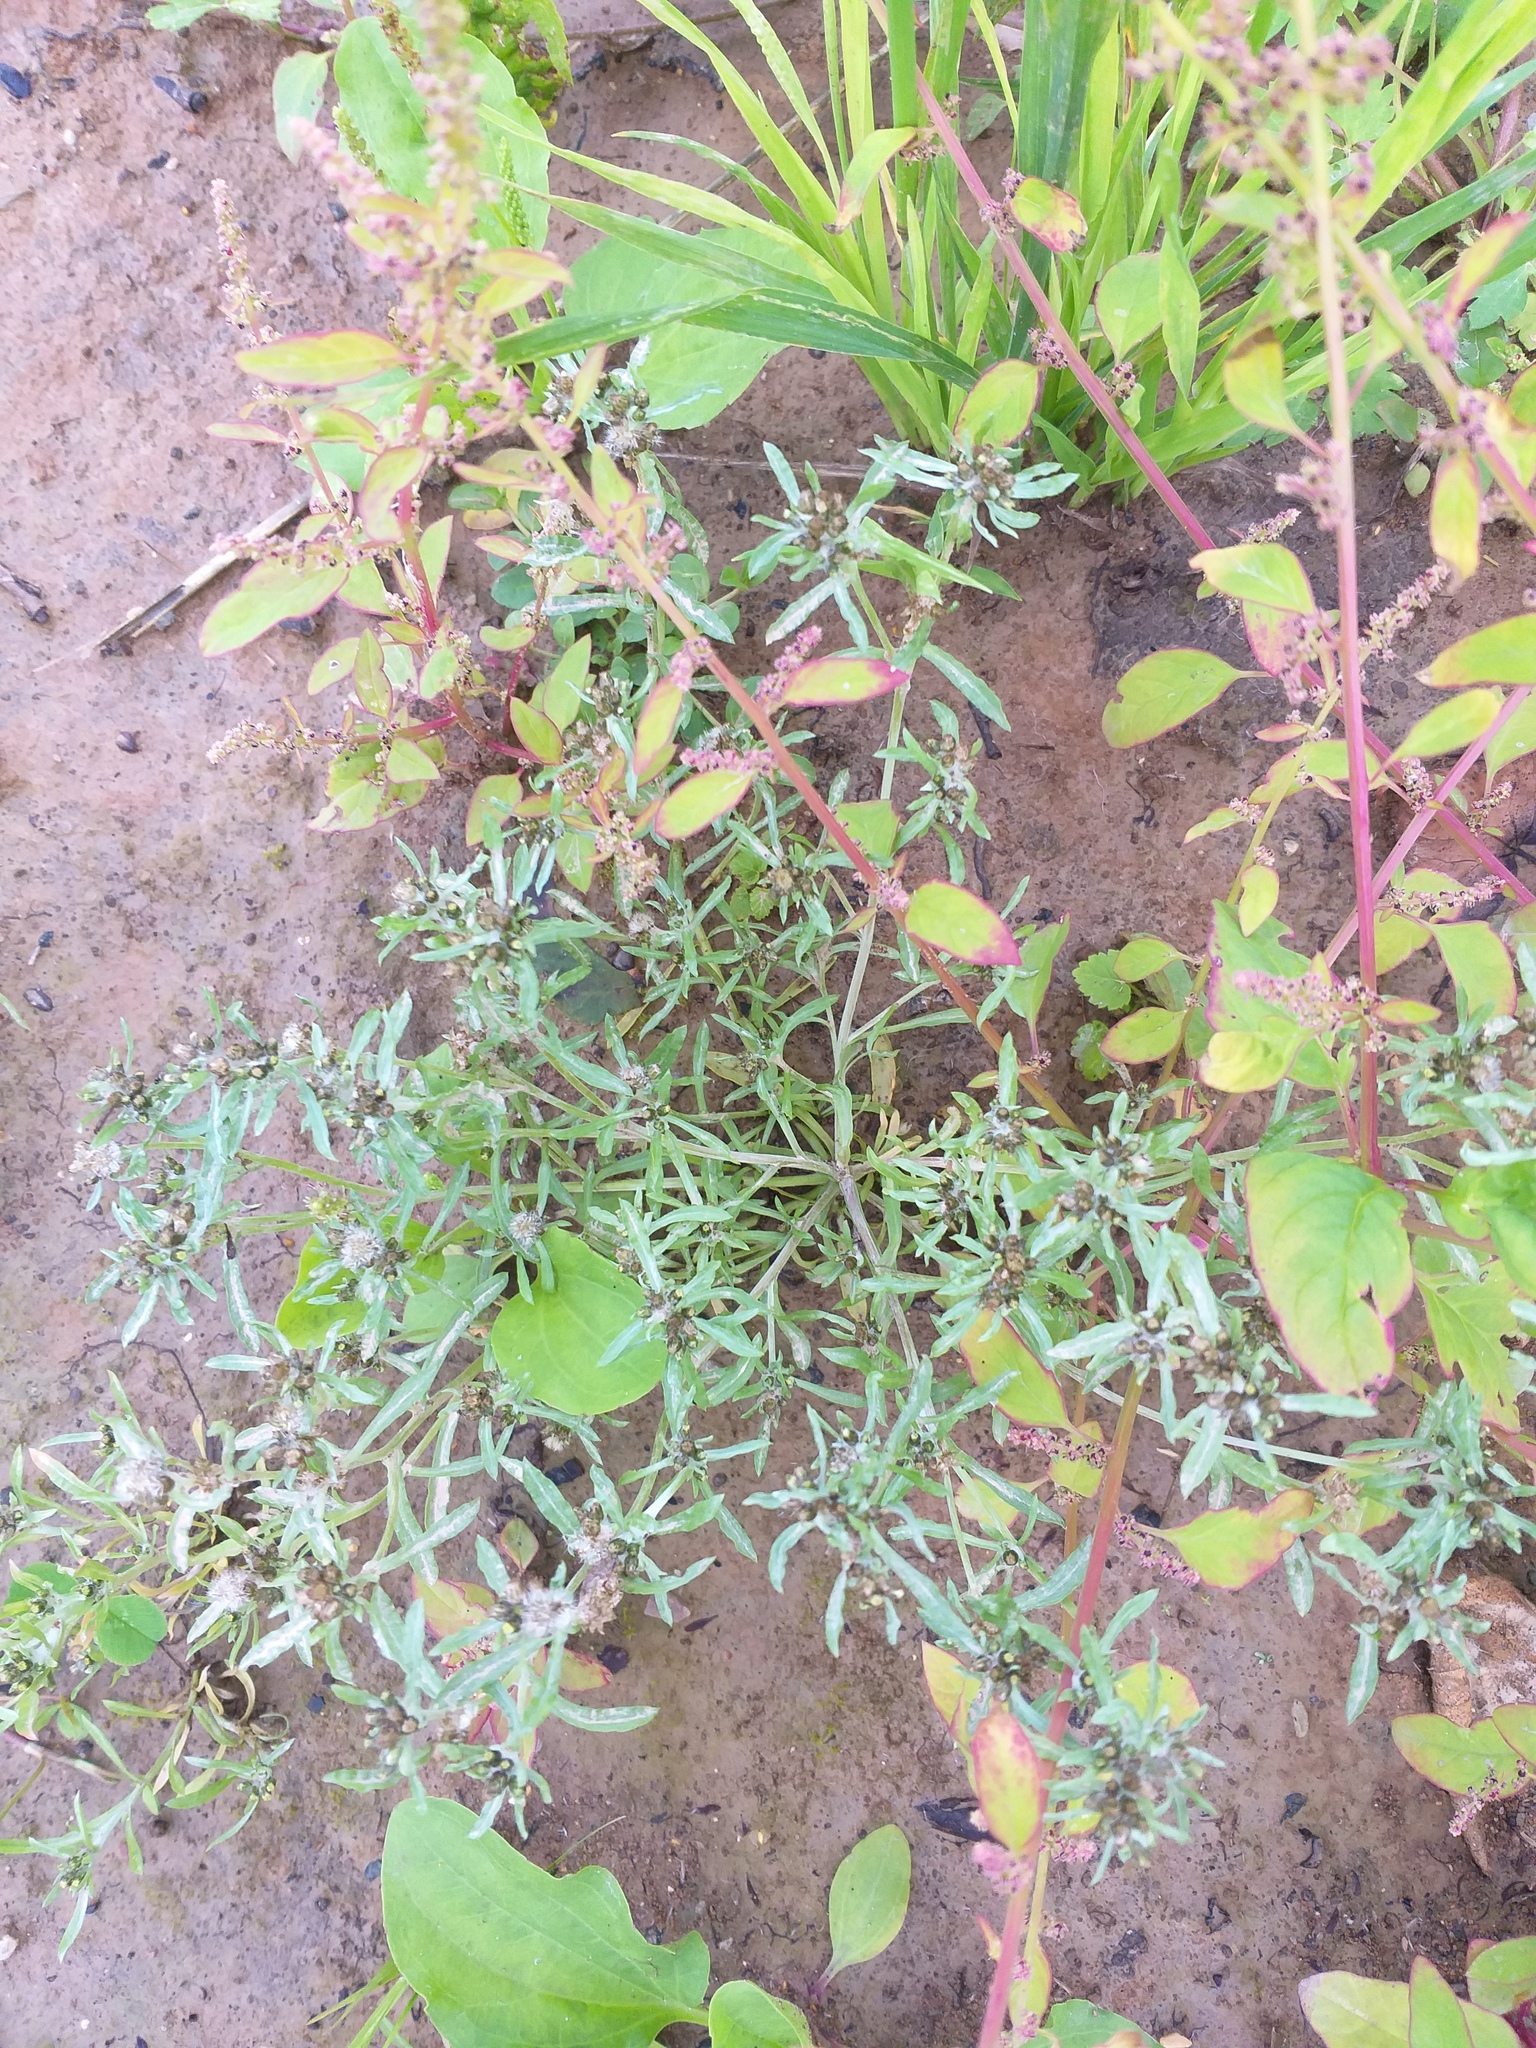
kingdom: Plantae
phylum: Tracheophyta
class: Magnoliopsida
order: Asterales
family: Asteraceae
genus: Gnaphalium
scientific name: Gnaphalium uliginosum
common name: Marsh cudweed
